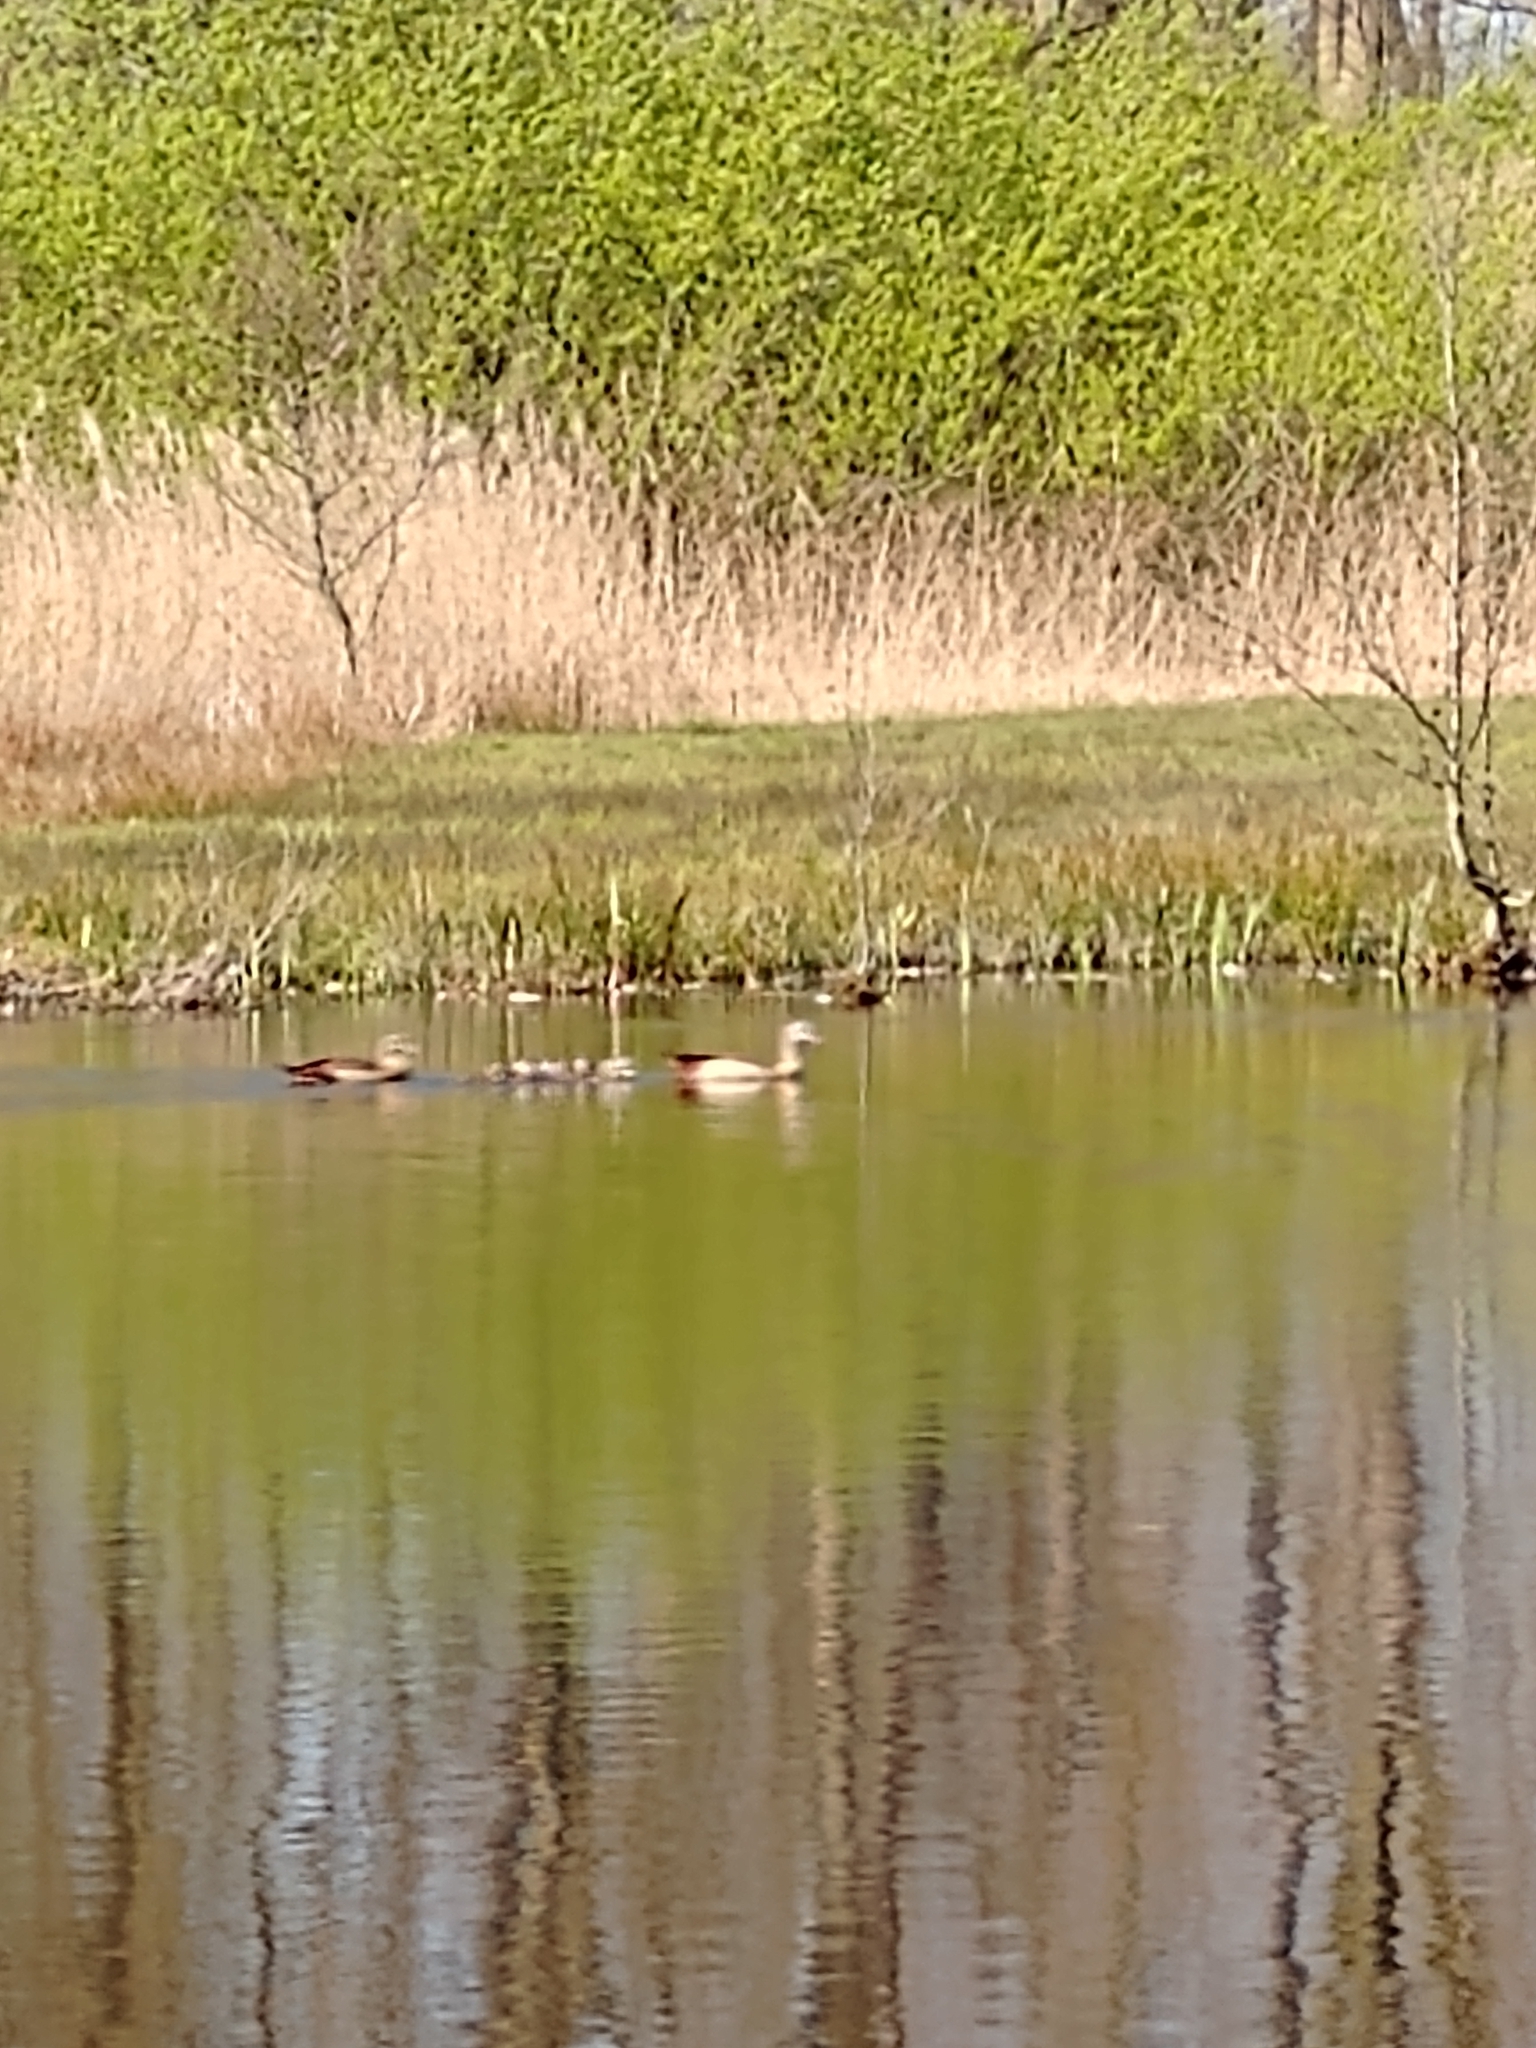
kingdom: Animalia
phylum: Chordata
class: Aves
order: Anseriformes
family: Anatidae
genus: Alopochen
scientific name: Alopochen aegyptiaca
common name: Egyptian goose
